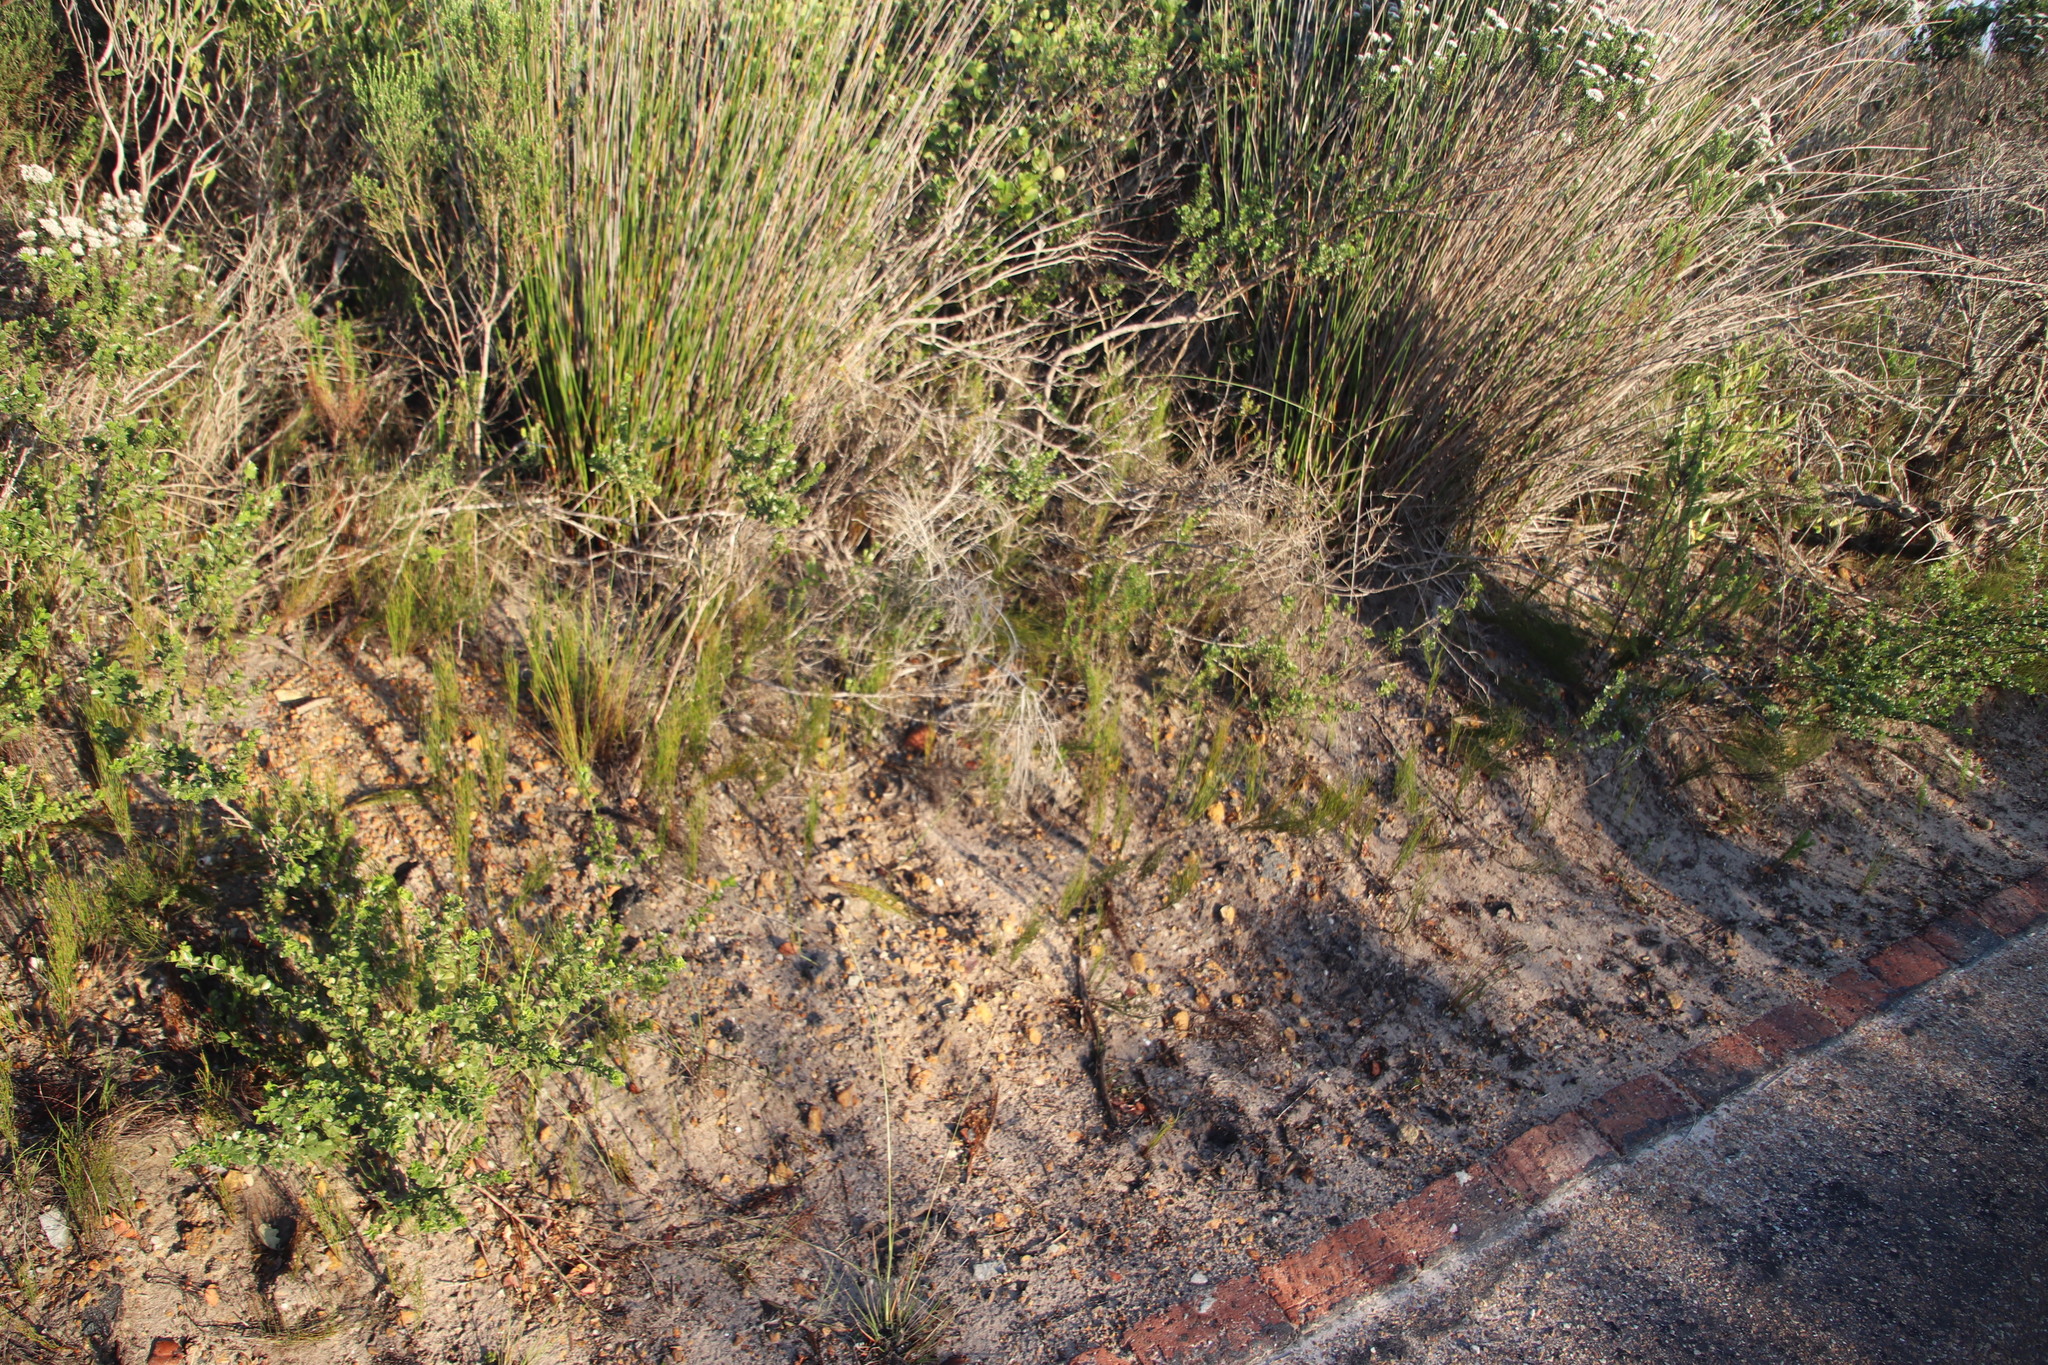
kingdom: Plantae
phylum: Tracheophyta
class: Liliopsida
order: Poales
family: Restionaceae
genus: Restio
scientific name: Restio eleocharis
